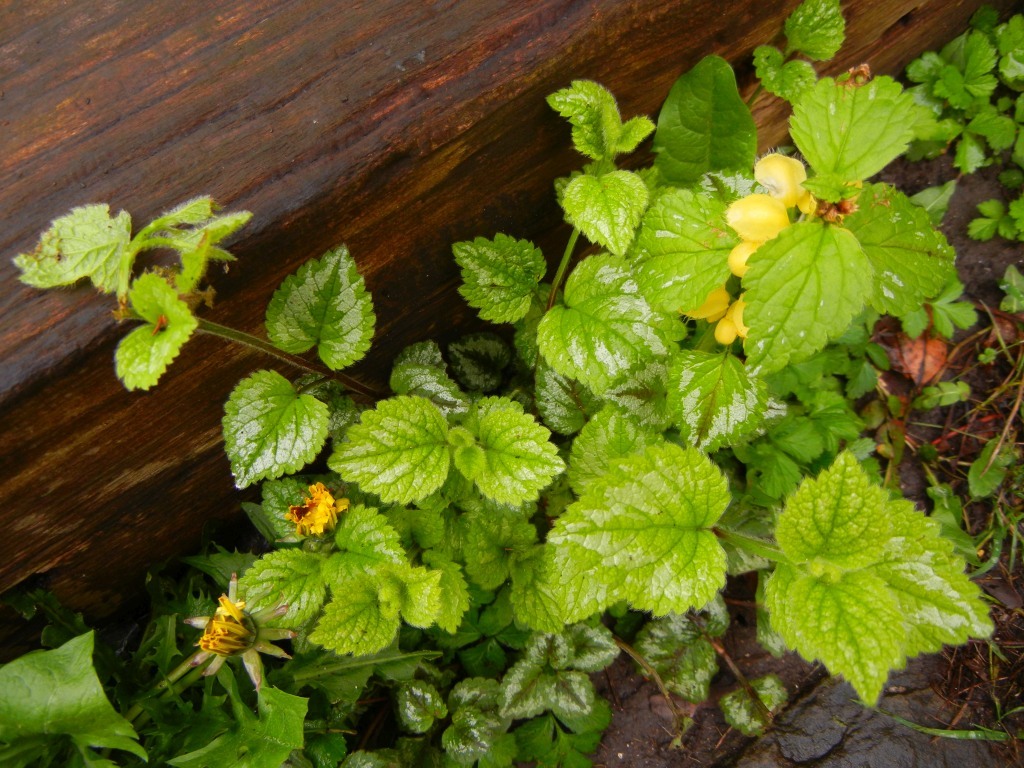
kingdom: Plantae
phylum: Tracheophyta
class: Magnoliopsida
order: Lamiales
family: Lamiaceae
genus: Lamium
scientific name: Lamium galeobdolon
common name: Yellow archangel
